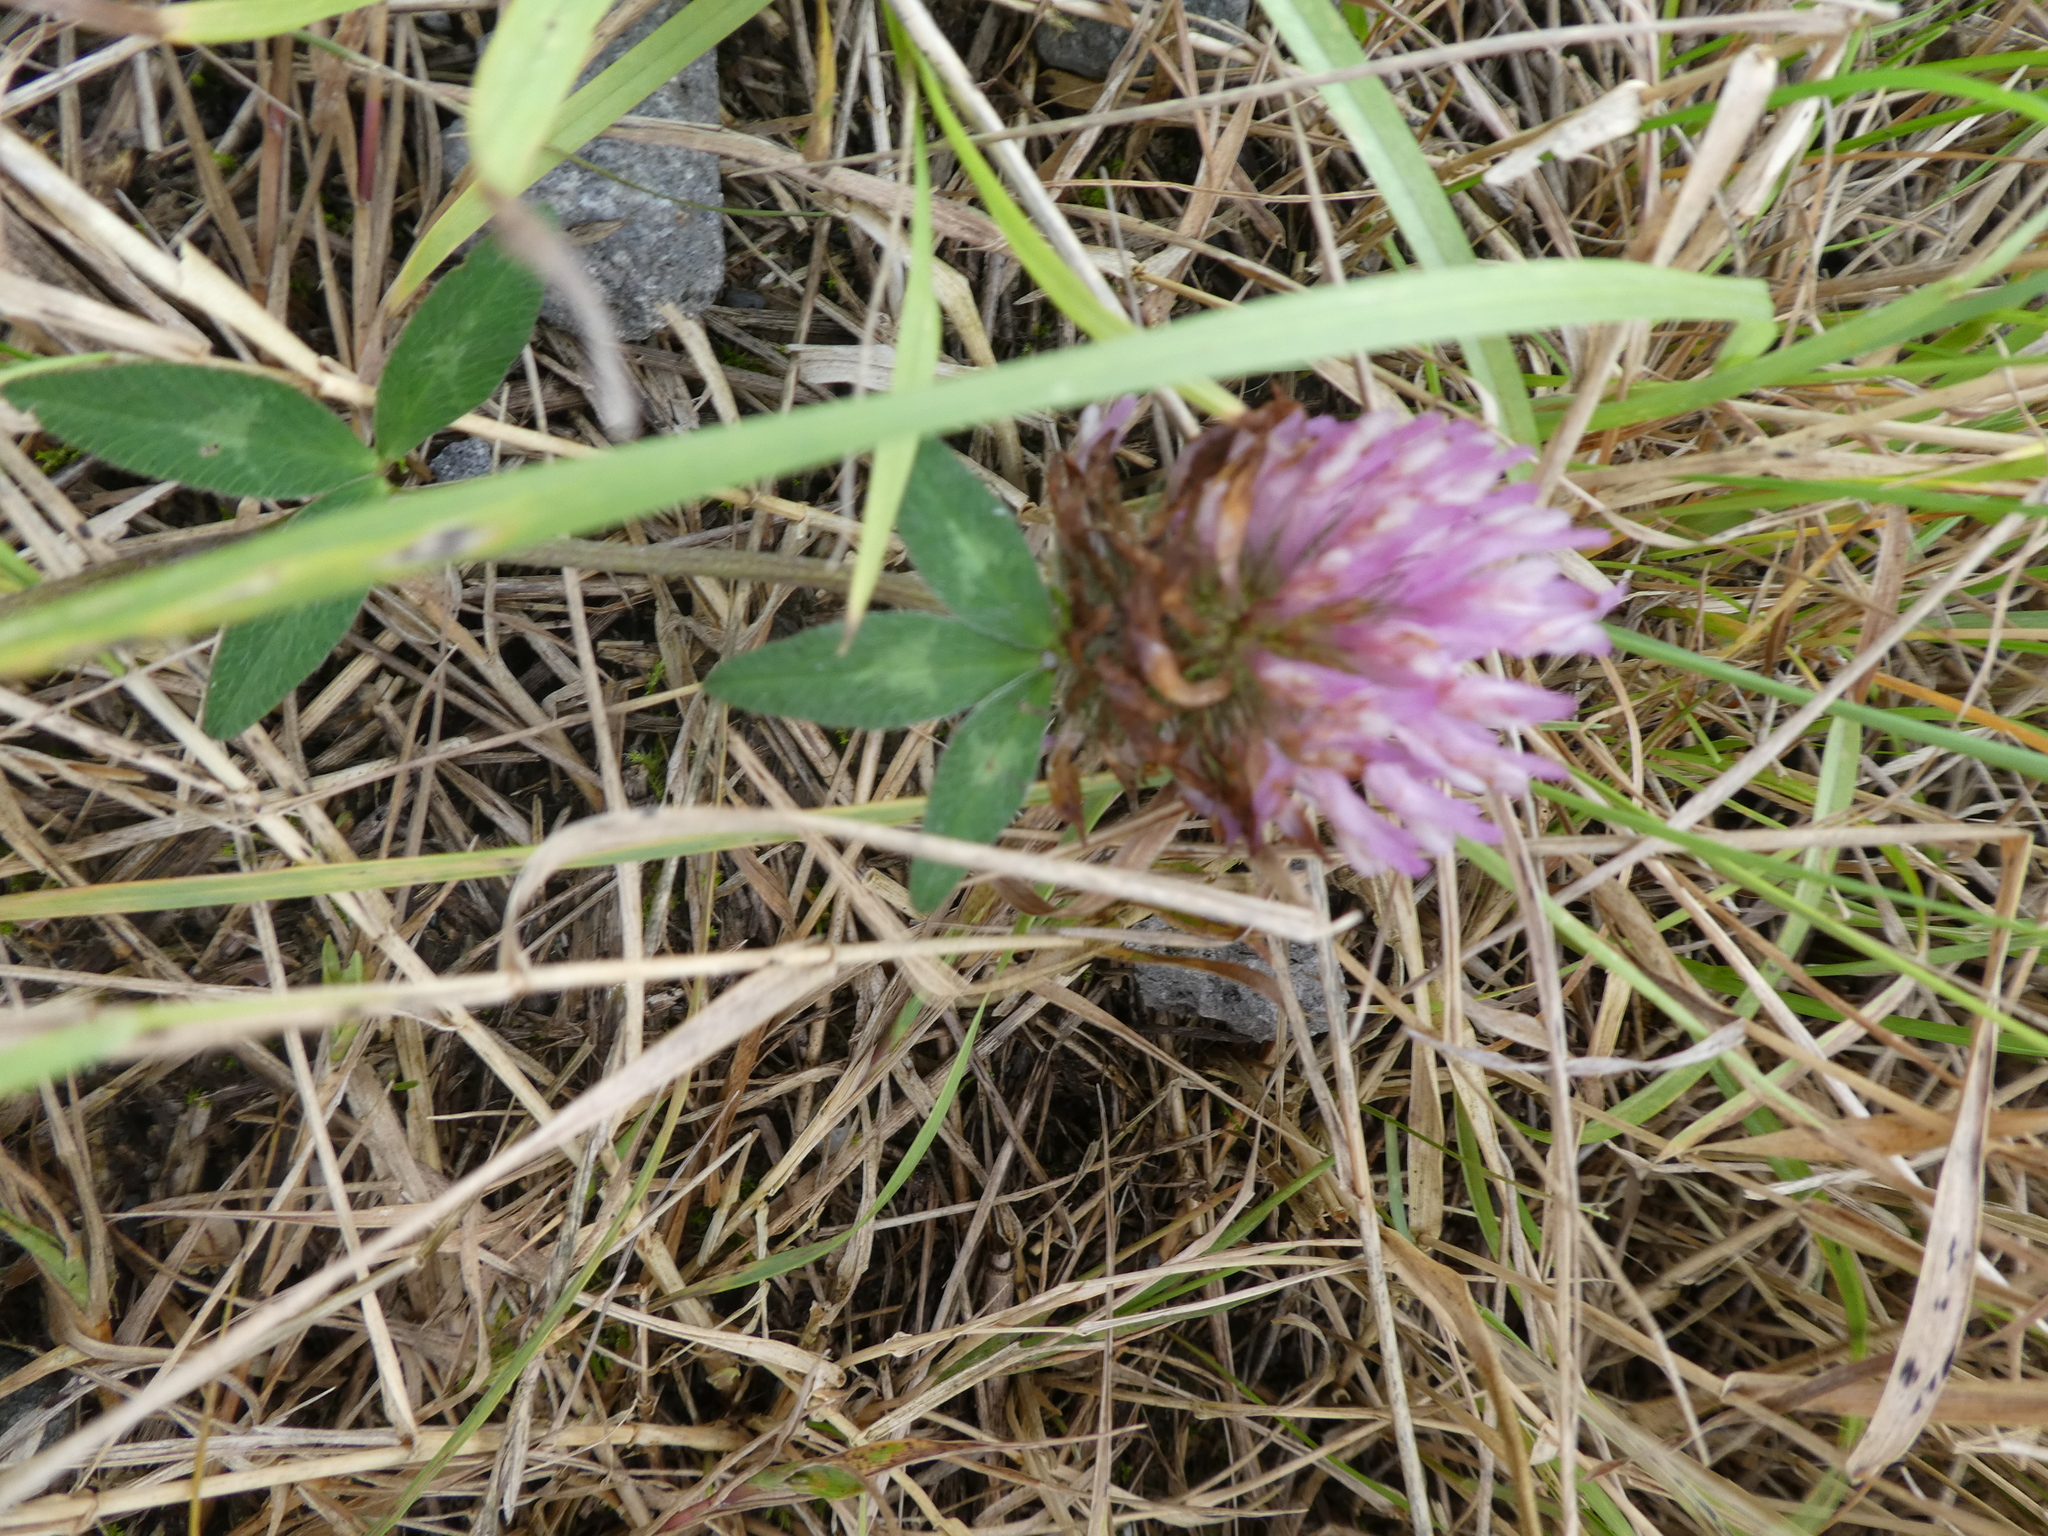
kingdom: Plantae
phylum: Tracheophyta
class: Magnoliopsida
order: Fabales
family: Fabaceae
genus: Trifolium
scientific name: Trifolium pratense
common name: Red clover
